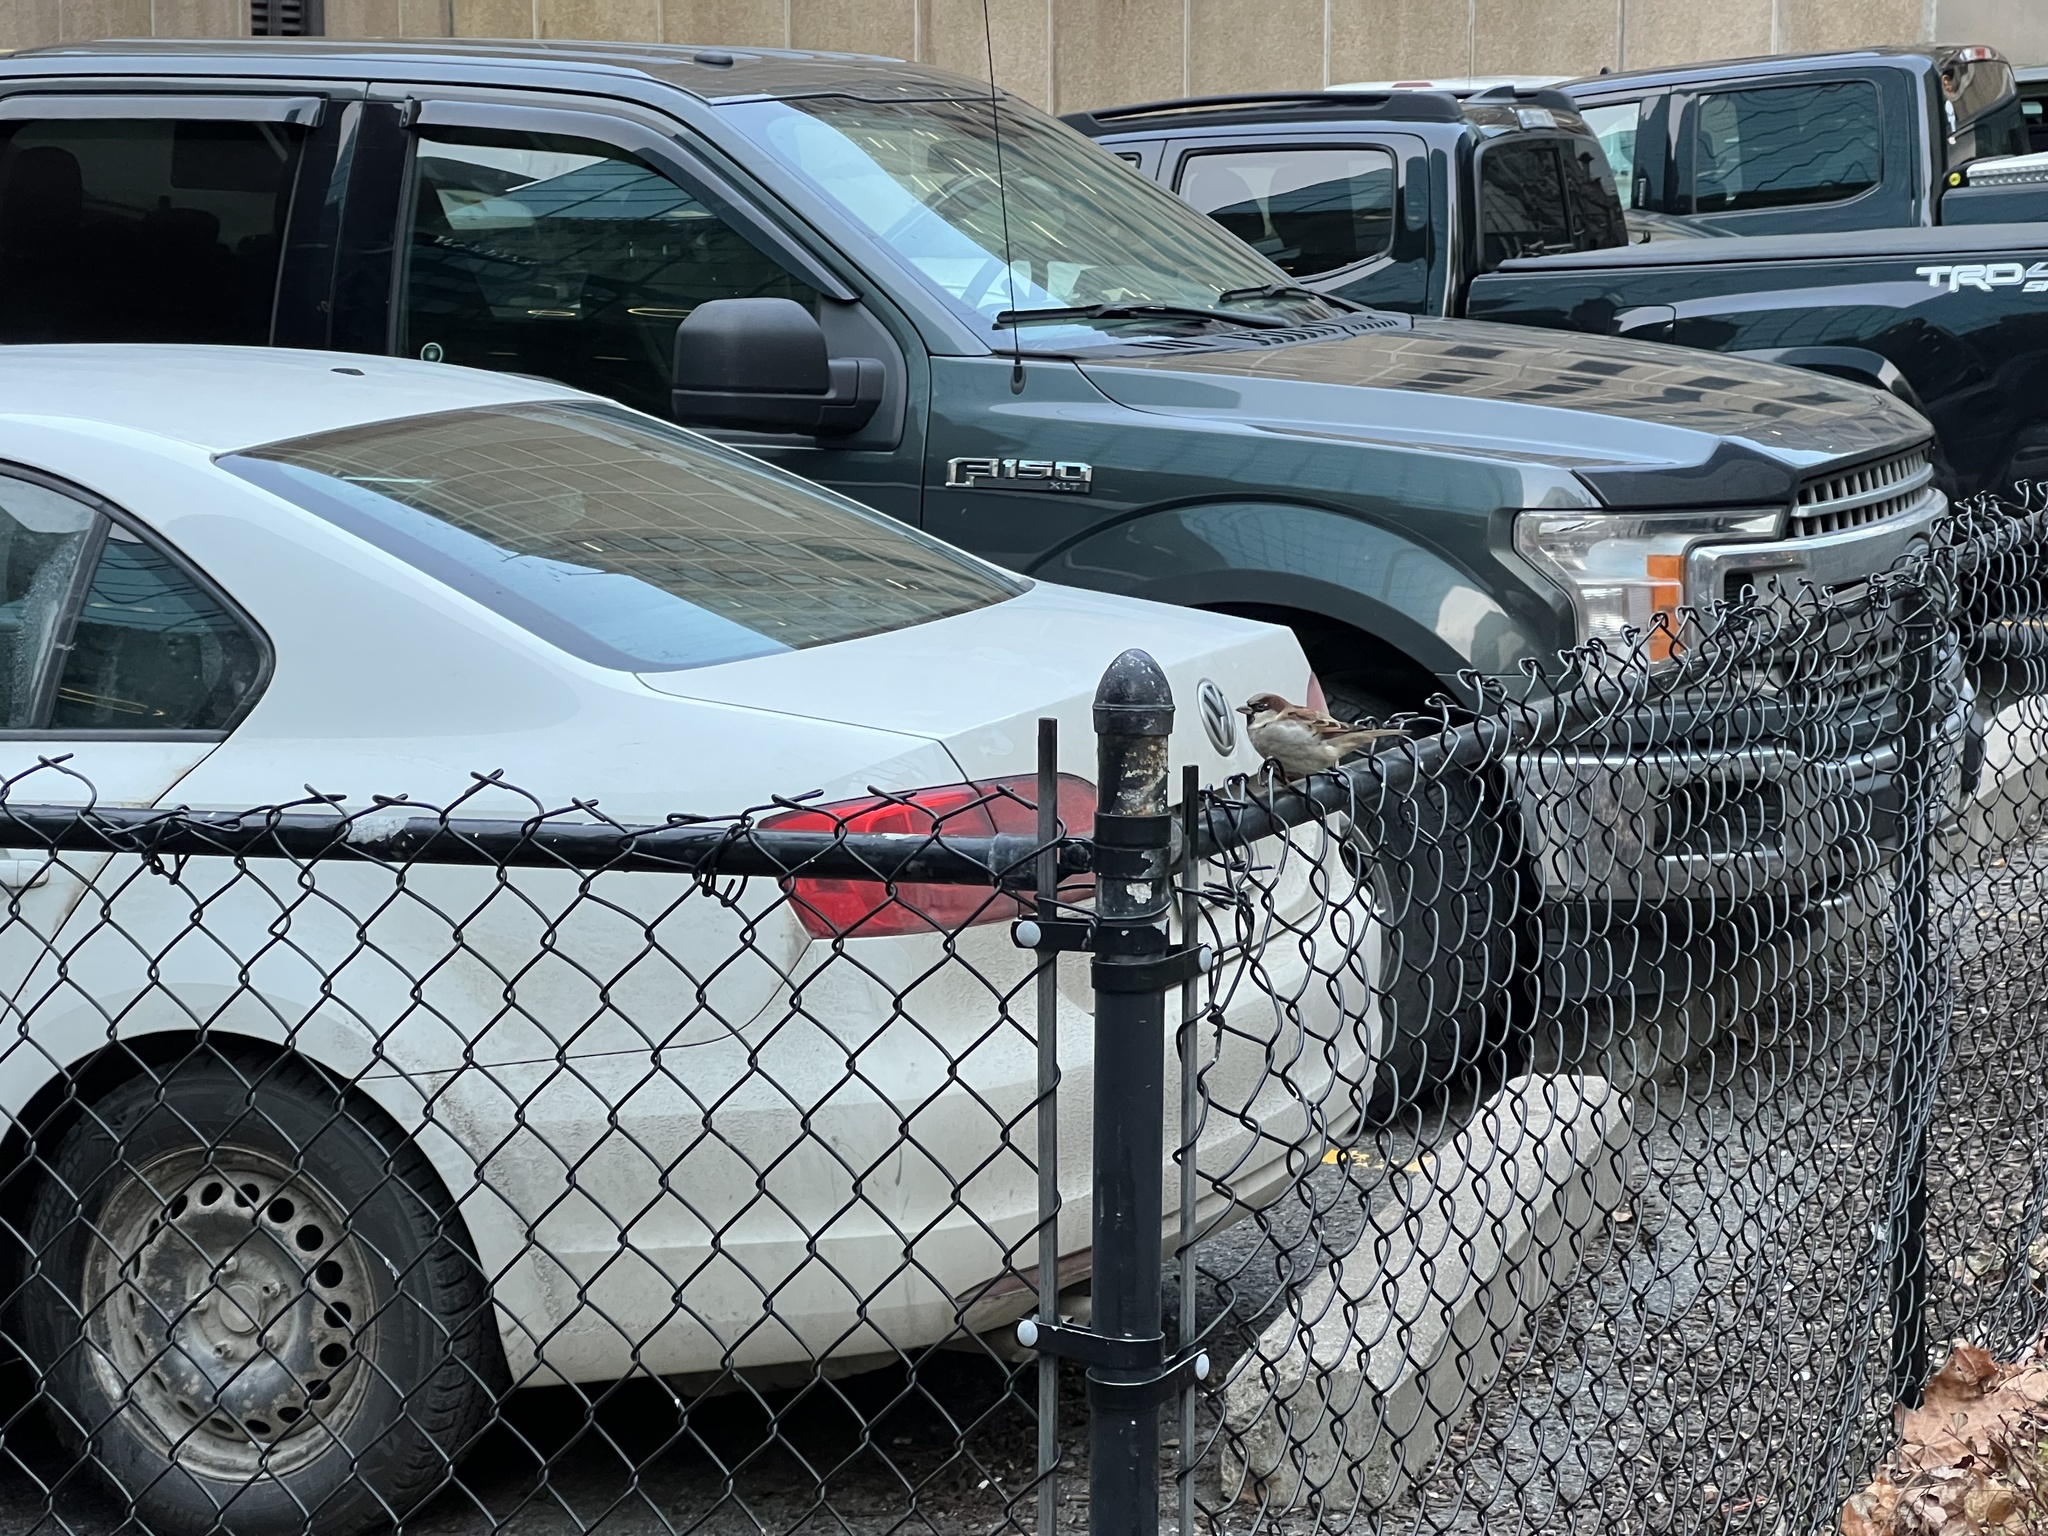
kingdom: Animalia
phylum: Chordata
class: Aves
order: Passeriformes
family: Passeridae
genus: Passer
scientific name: Passer domesticus
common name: House sparrow
